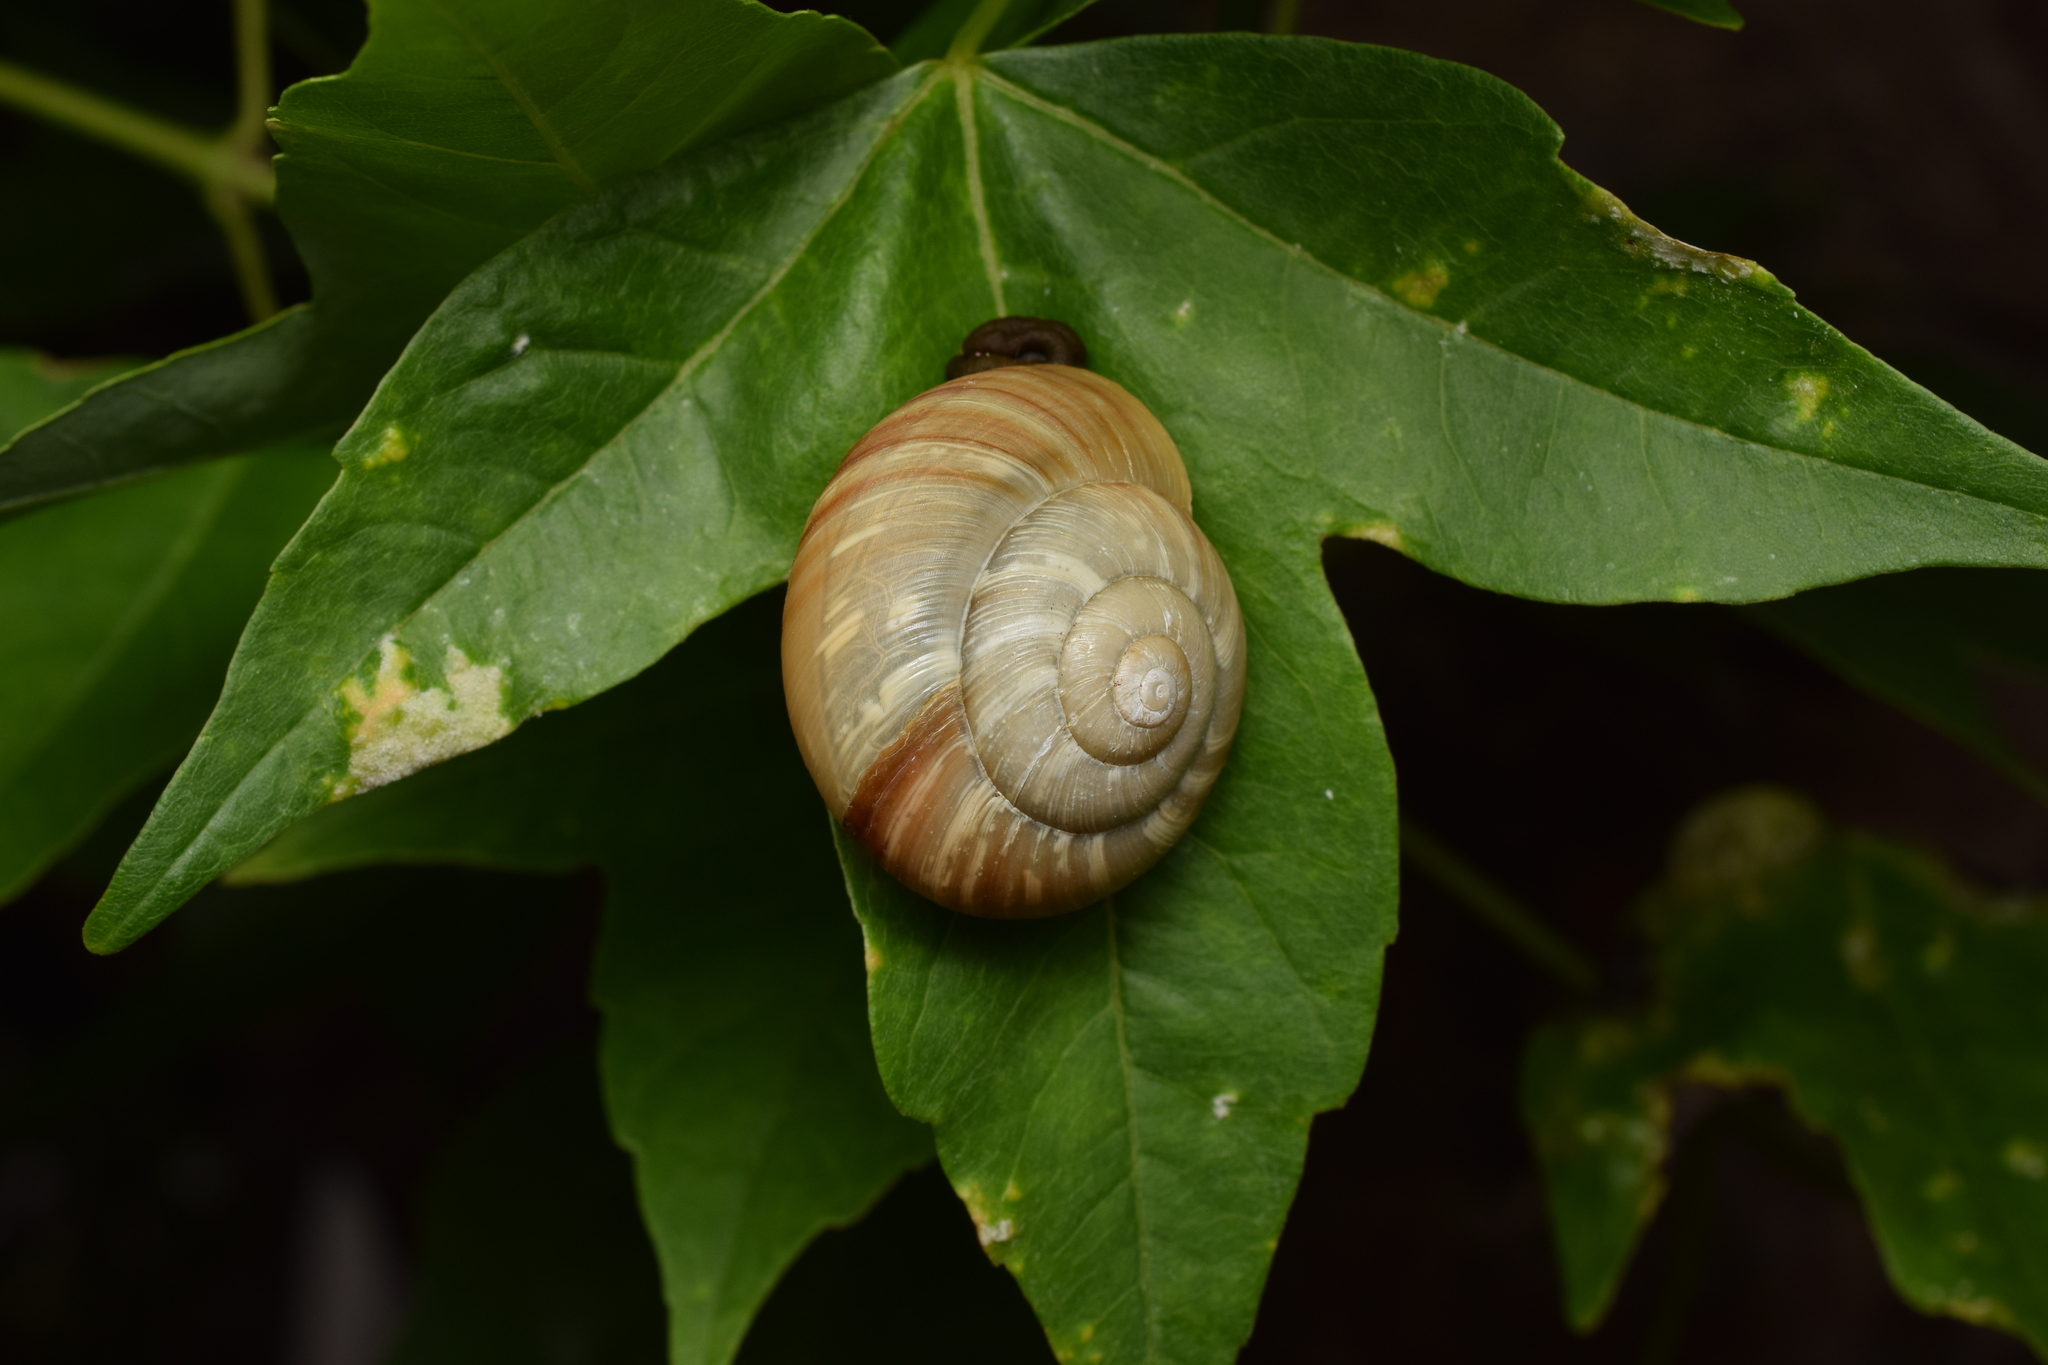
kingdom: Animalia
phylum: Mollusca
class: Gastropoda
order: Stylommatophora
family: Camaenidae
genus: Euhadra
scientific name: Euhadra subnimbosa
